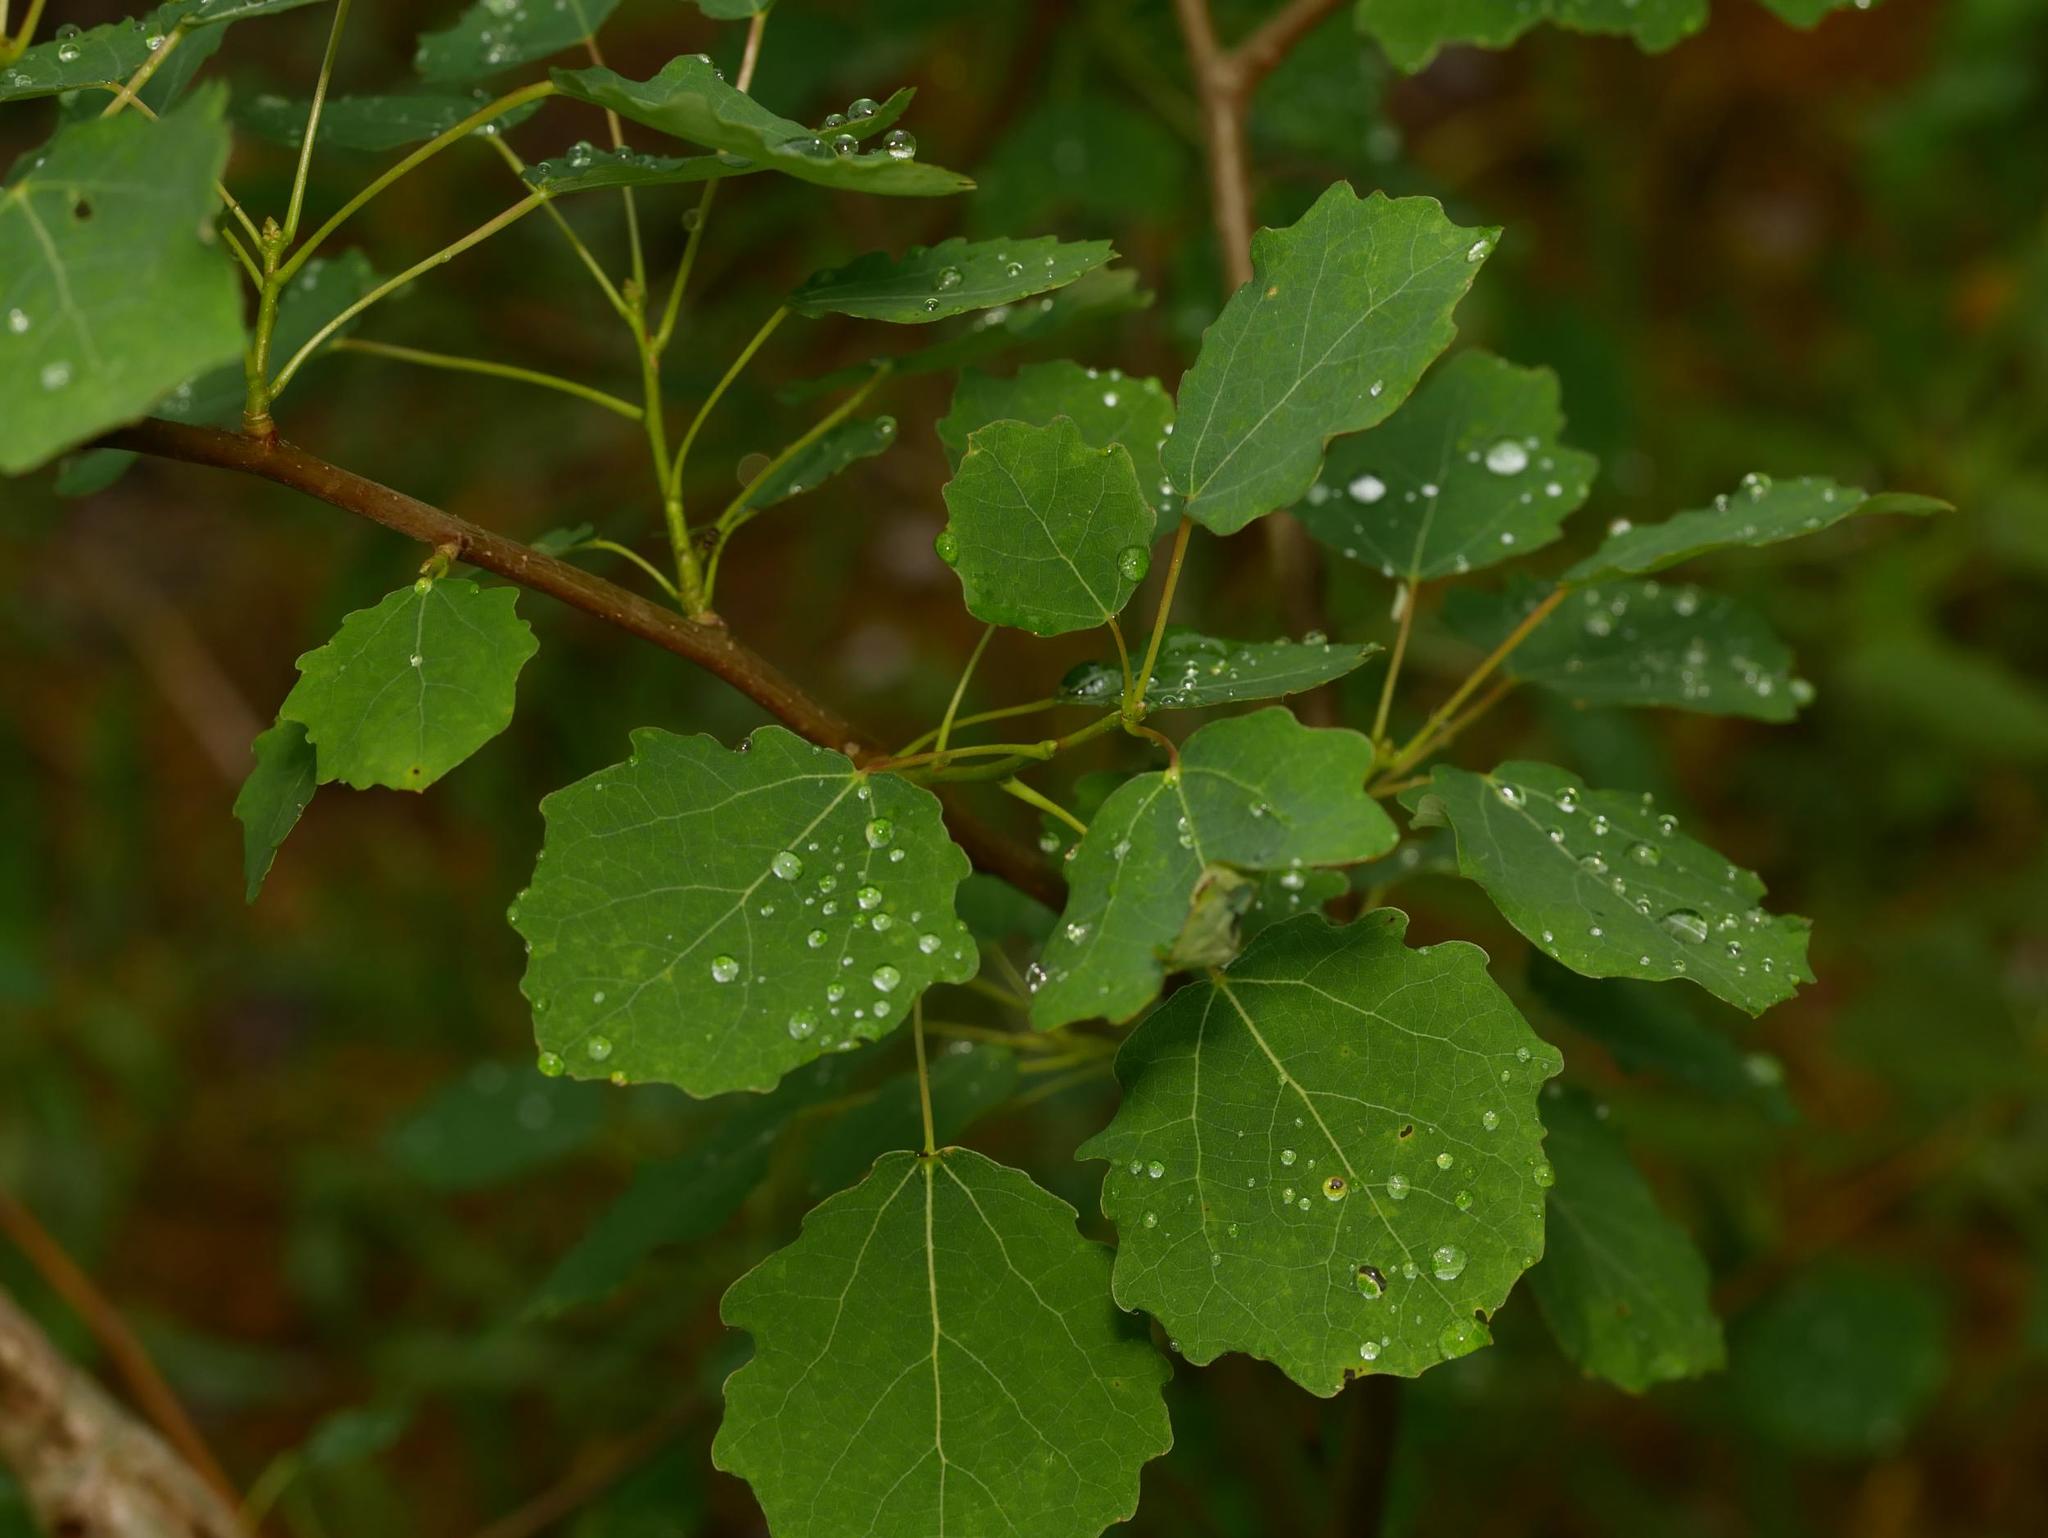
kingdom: Plantae
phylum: Tracheophyta
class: Magnoliopsida
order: Malpighiales
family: Salicaceae
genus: Populus
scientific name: Populus tremula
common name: European aspen
